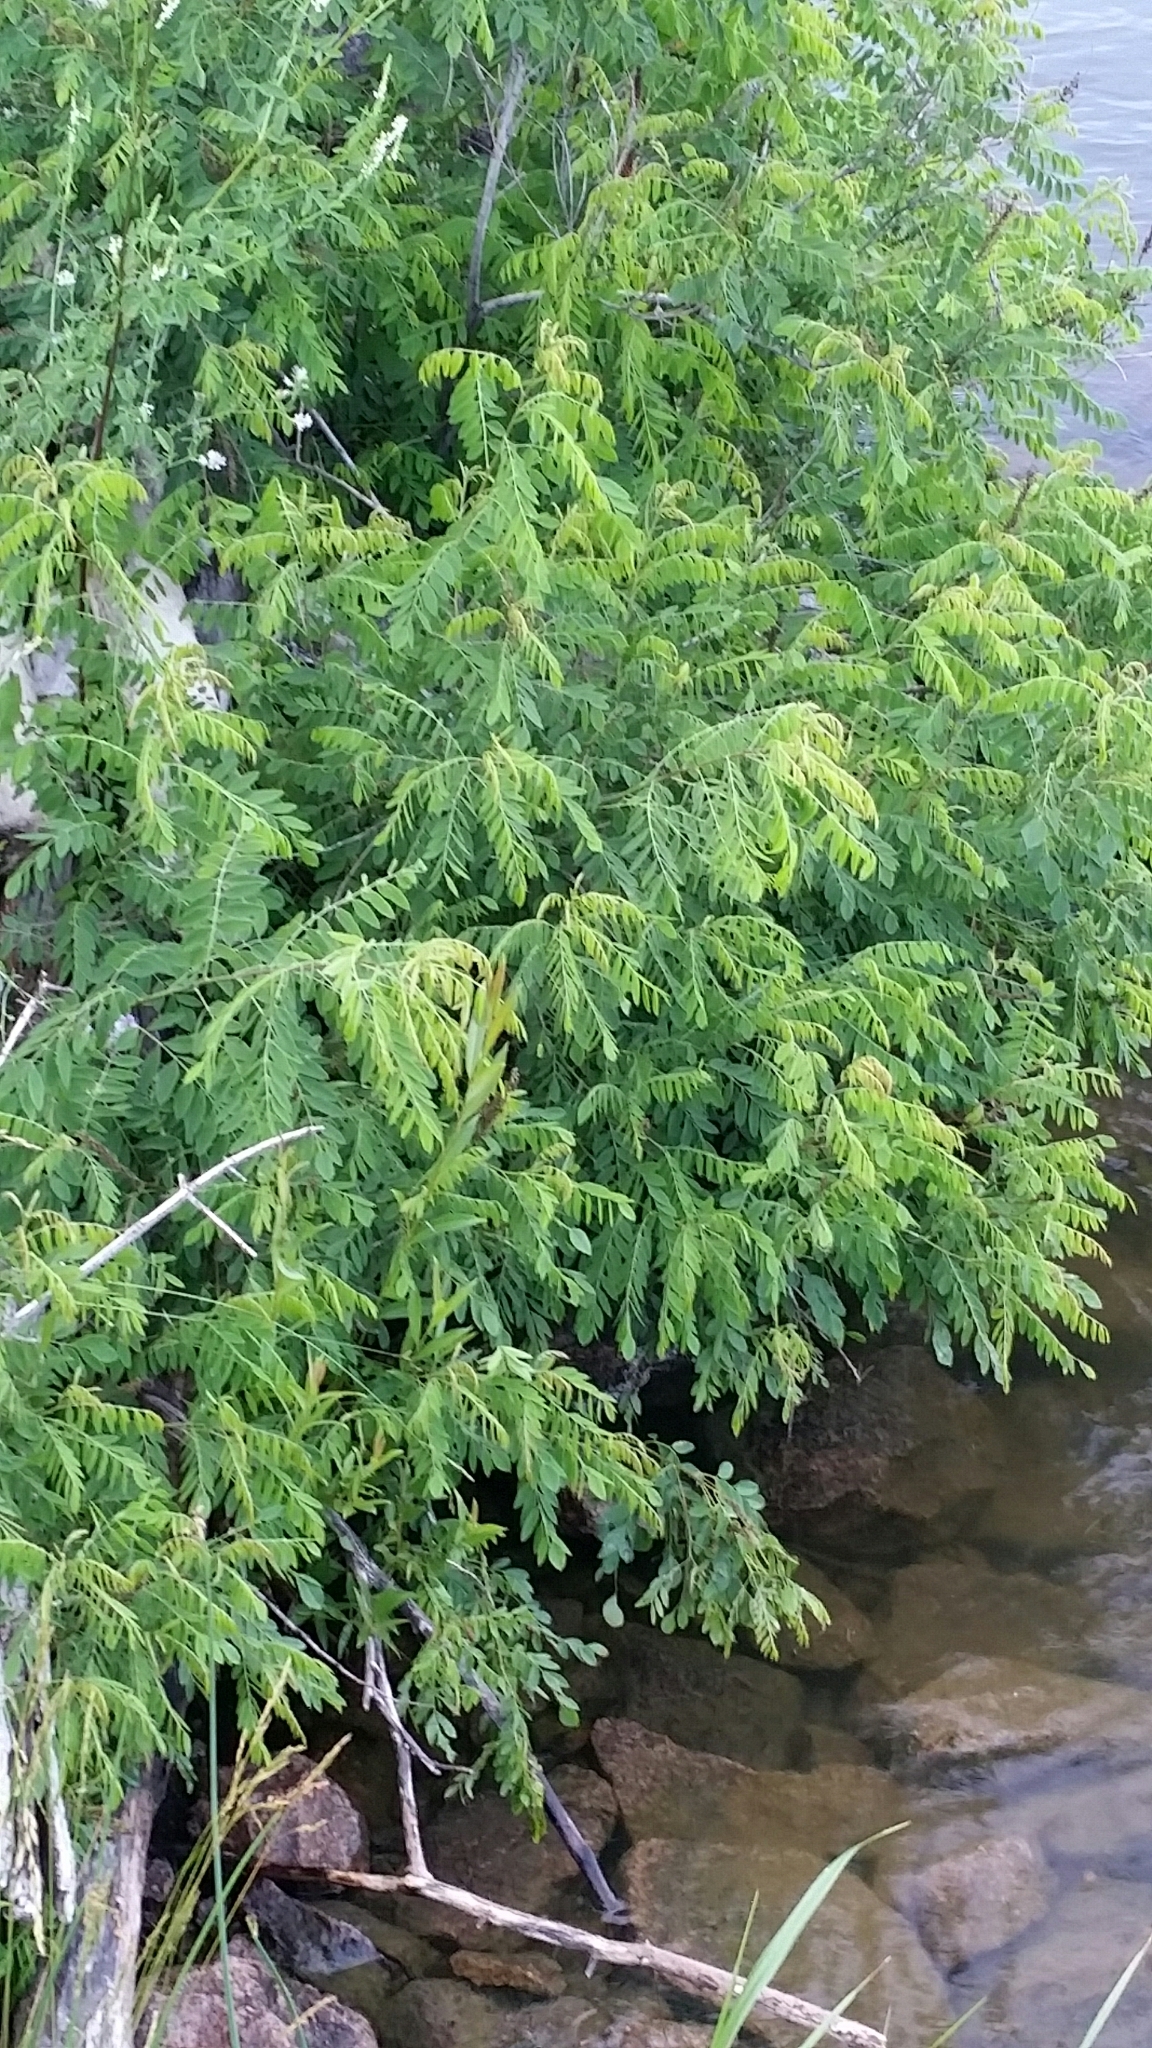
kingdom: Plantae
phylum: Tracheophyta
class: Magnoliopsida
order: Fabales
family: Fabaceae
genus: Amorpha
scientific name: Amorpha fruticosa
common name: False indigo
